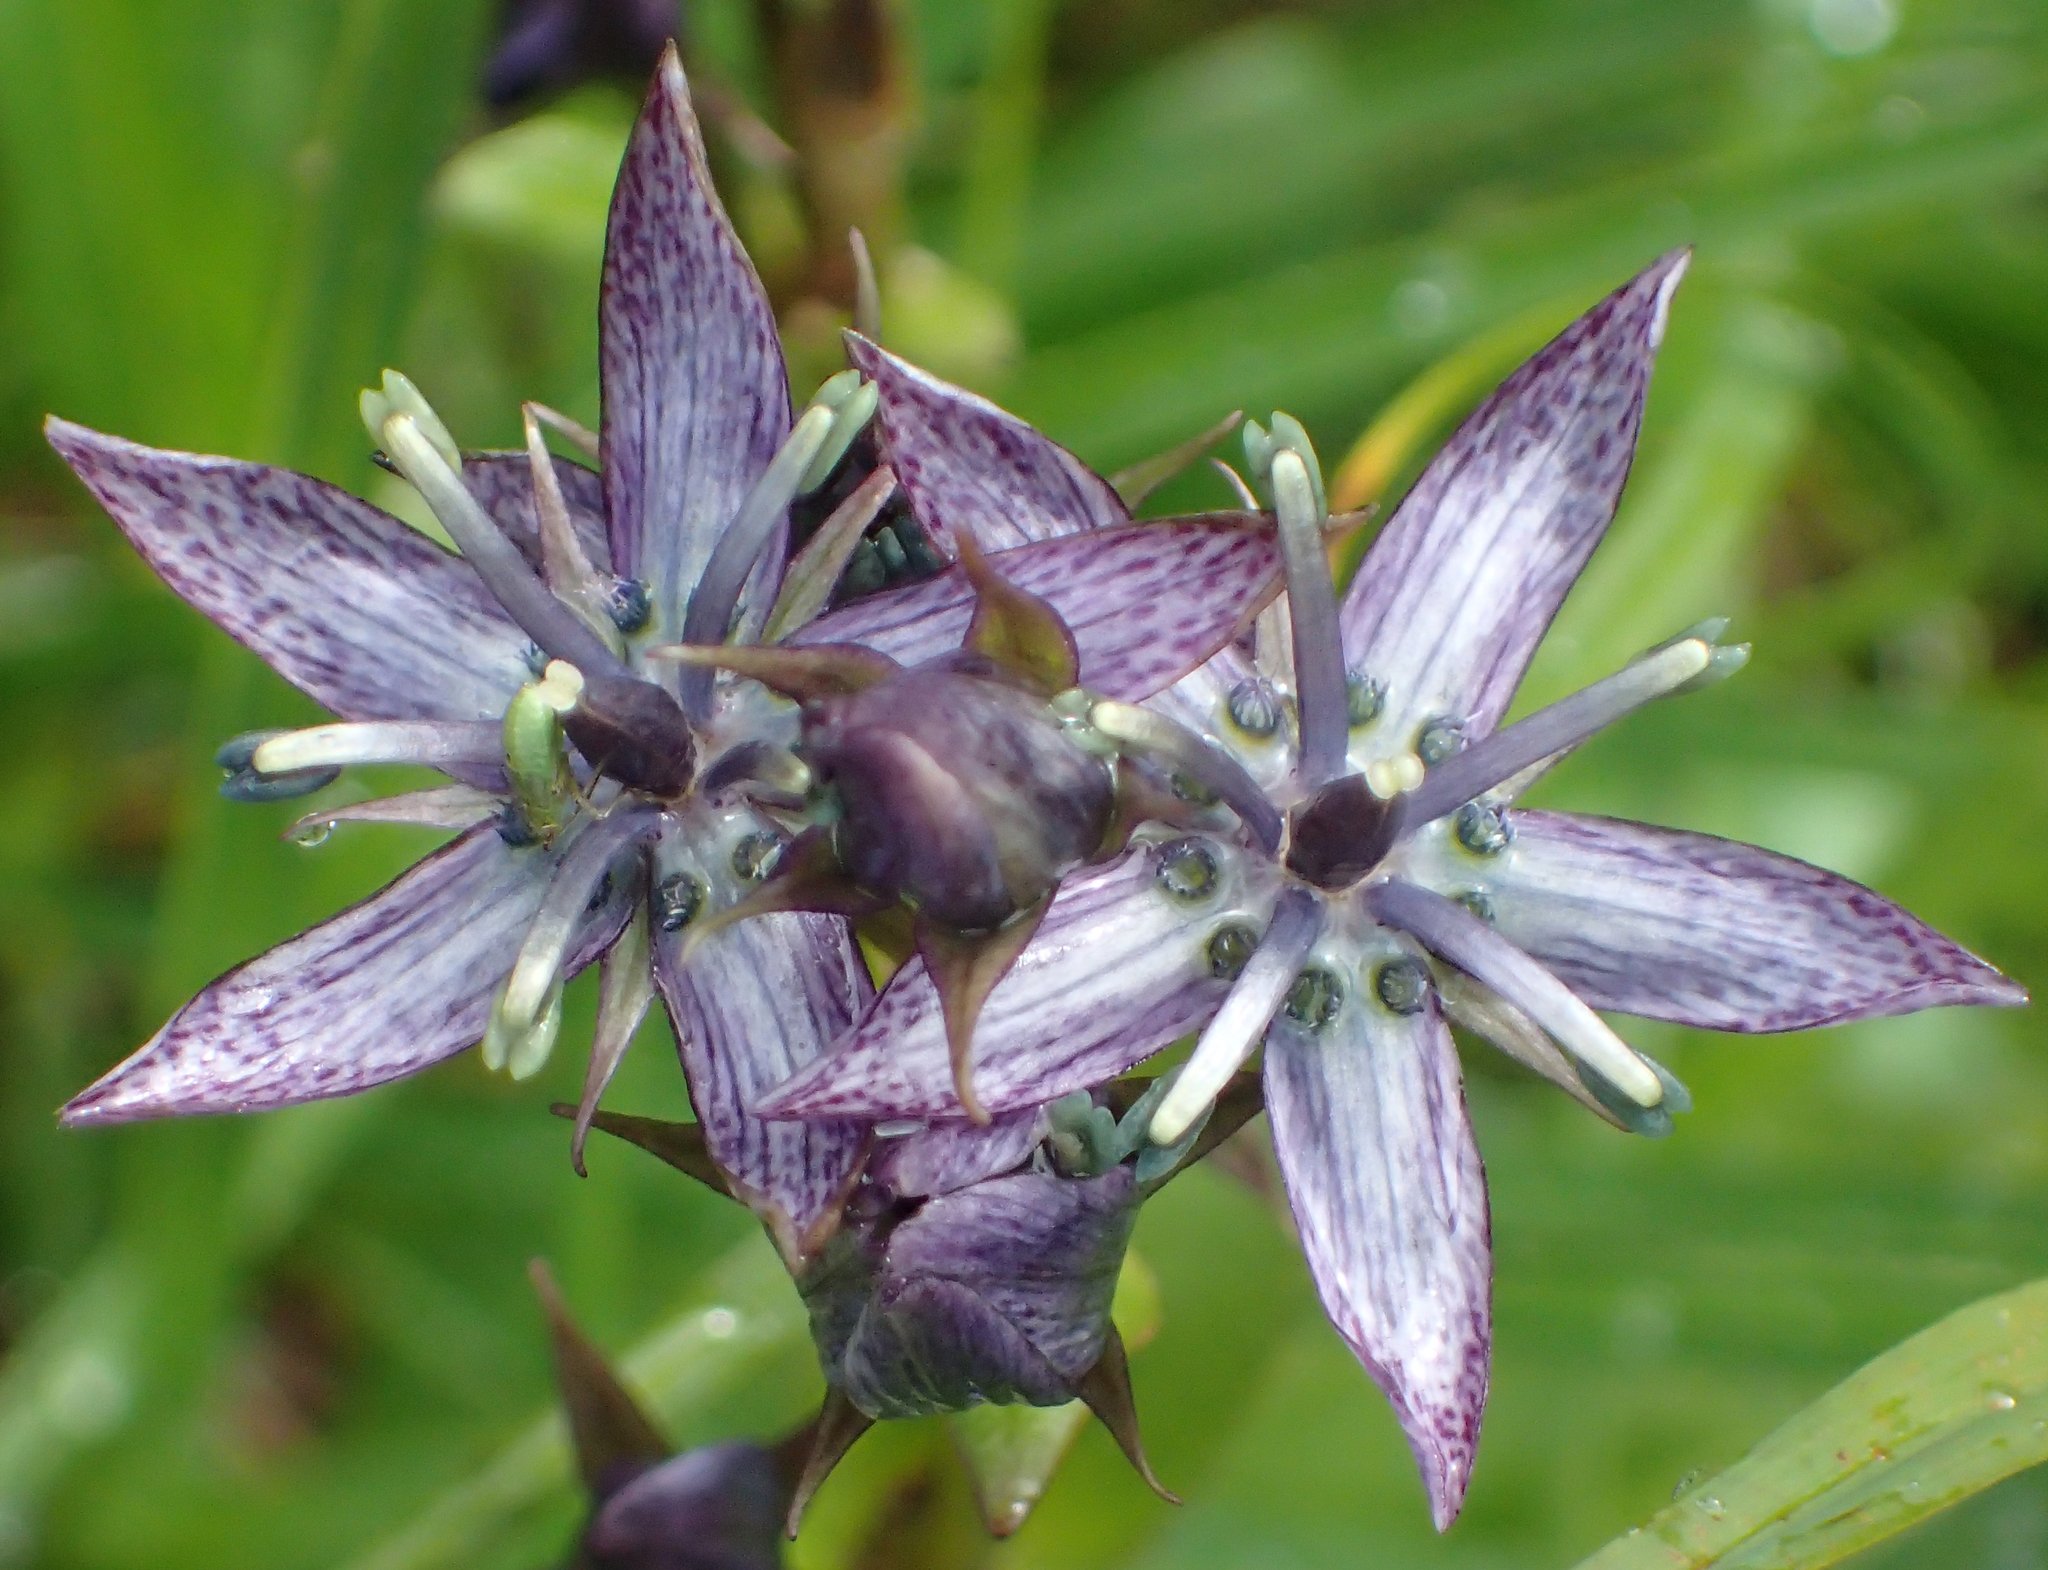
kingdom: Plantae
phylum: Tracheophyta
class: Magnoliopsida
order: Gentianales
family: Gentianaceae
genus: Swertia
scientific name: Swertia perennis
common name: Alpine bog swertia
